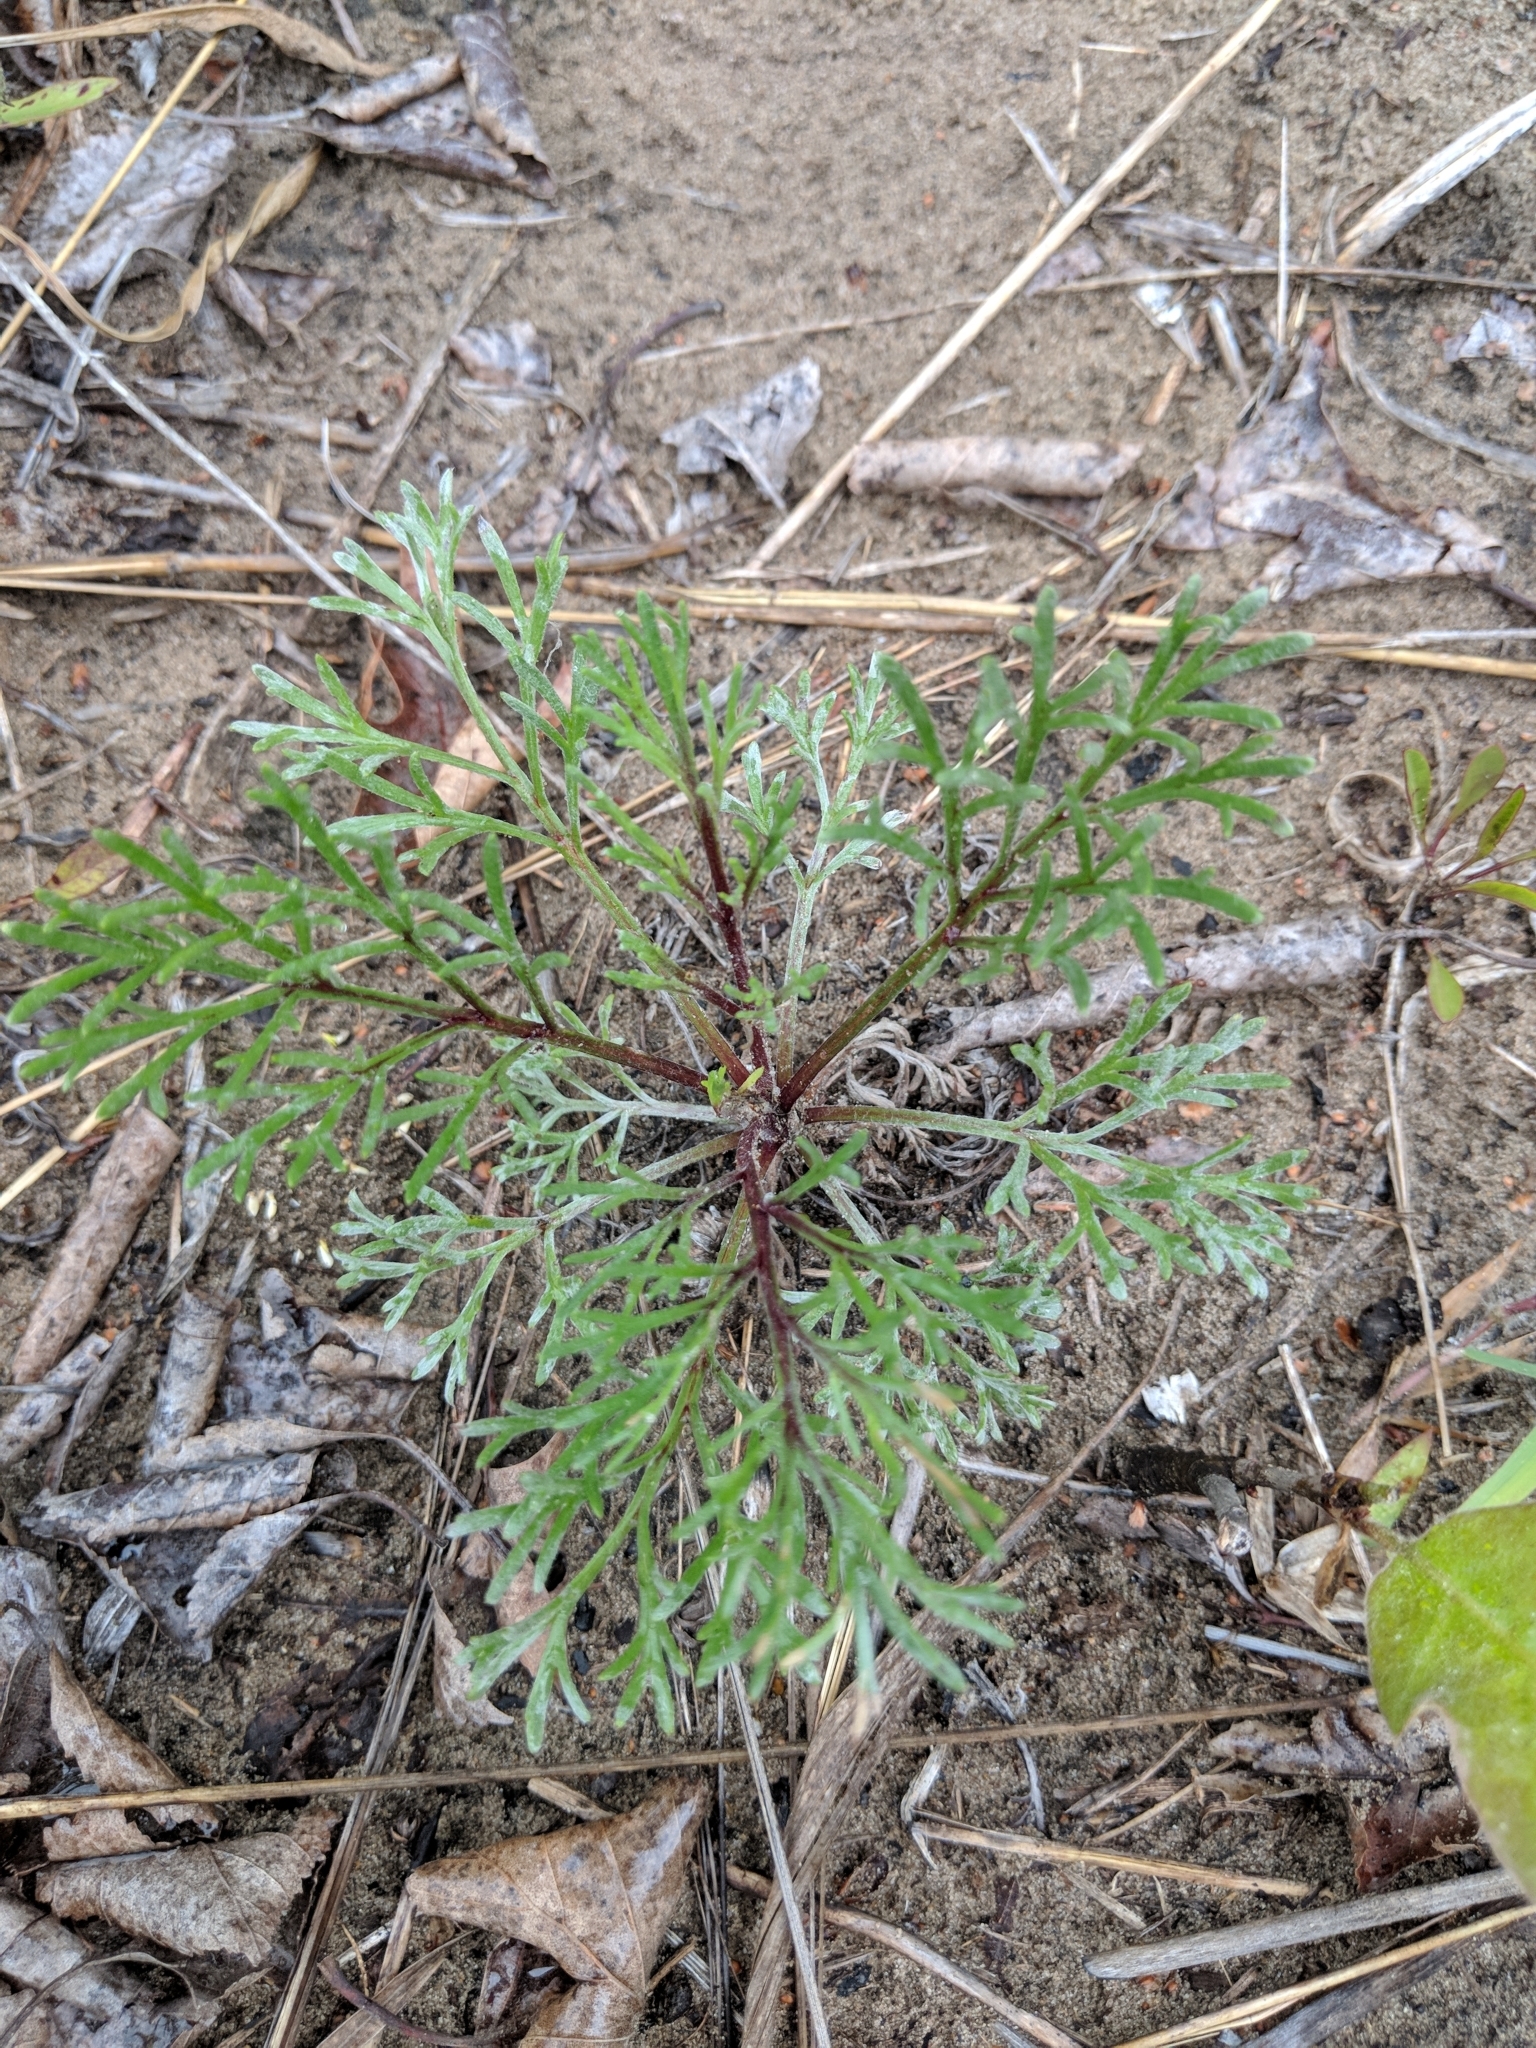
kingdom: Plantae
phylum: Tracheophyta
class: Magnoliopsida
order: Asterales
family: Asteraceae
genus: Artemisia
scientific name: Artemisia campestris
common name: Field wormwood
